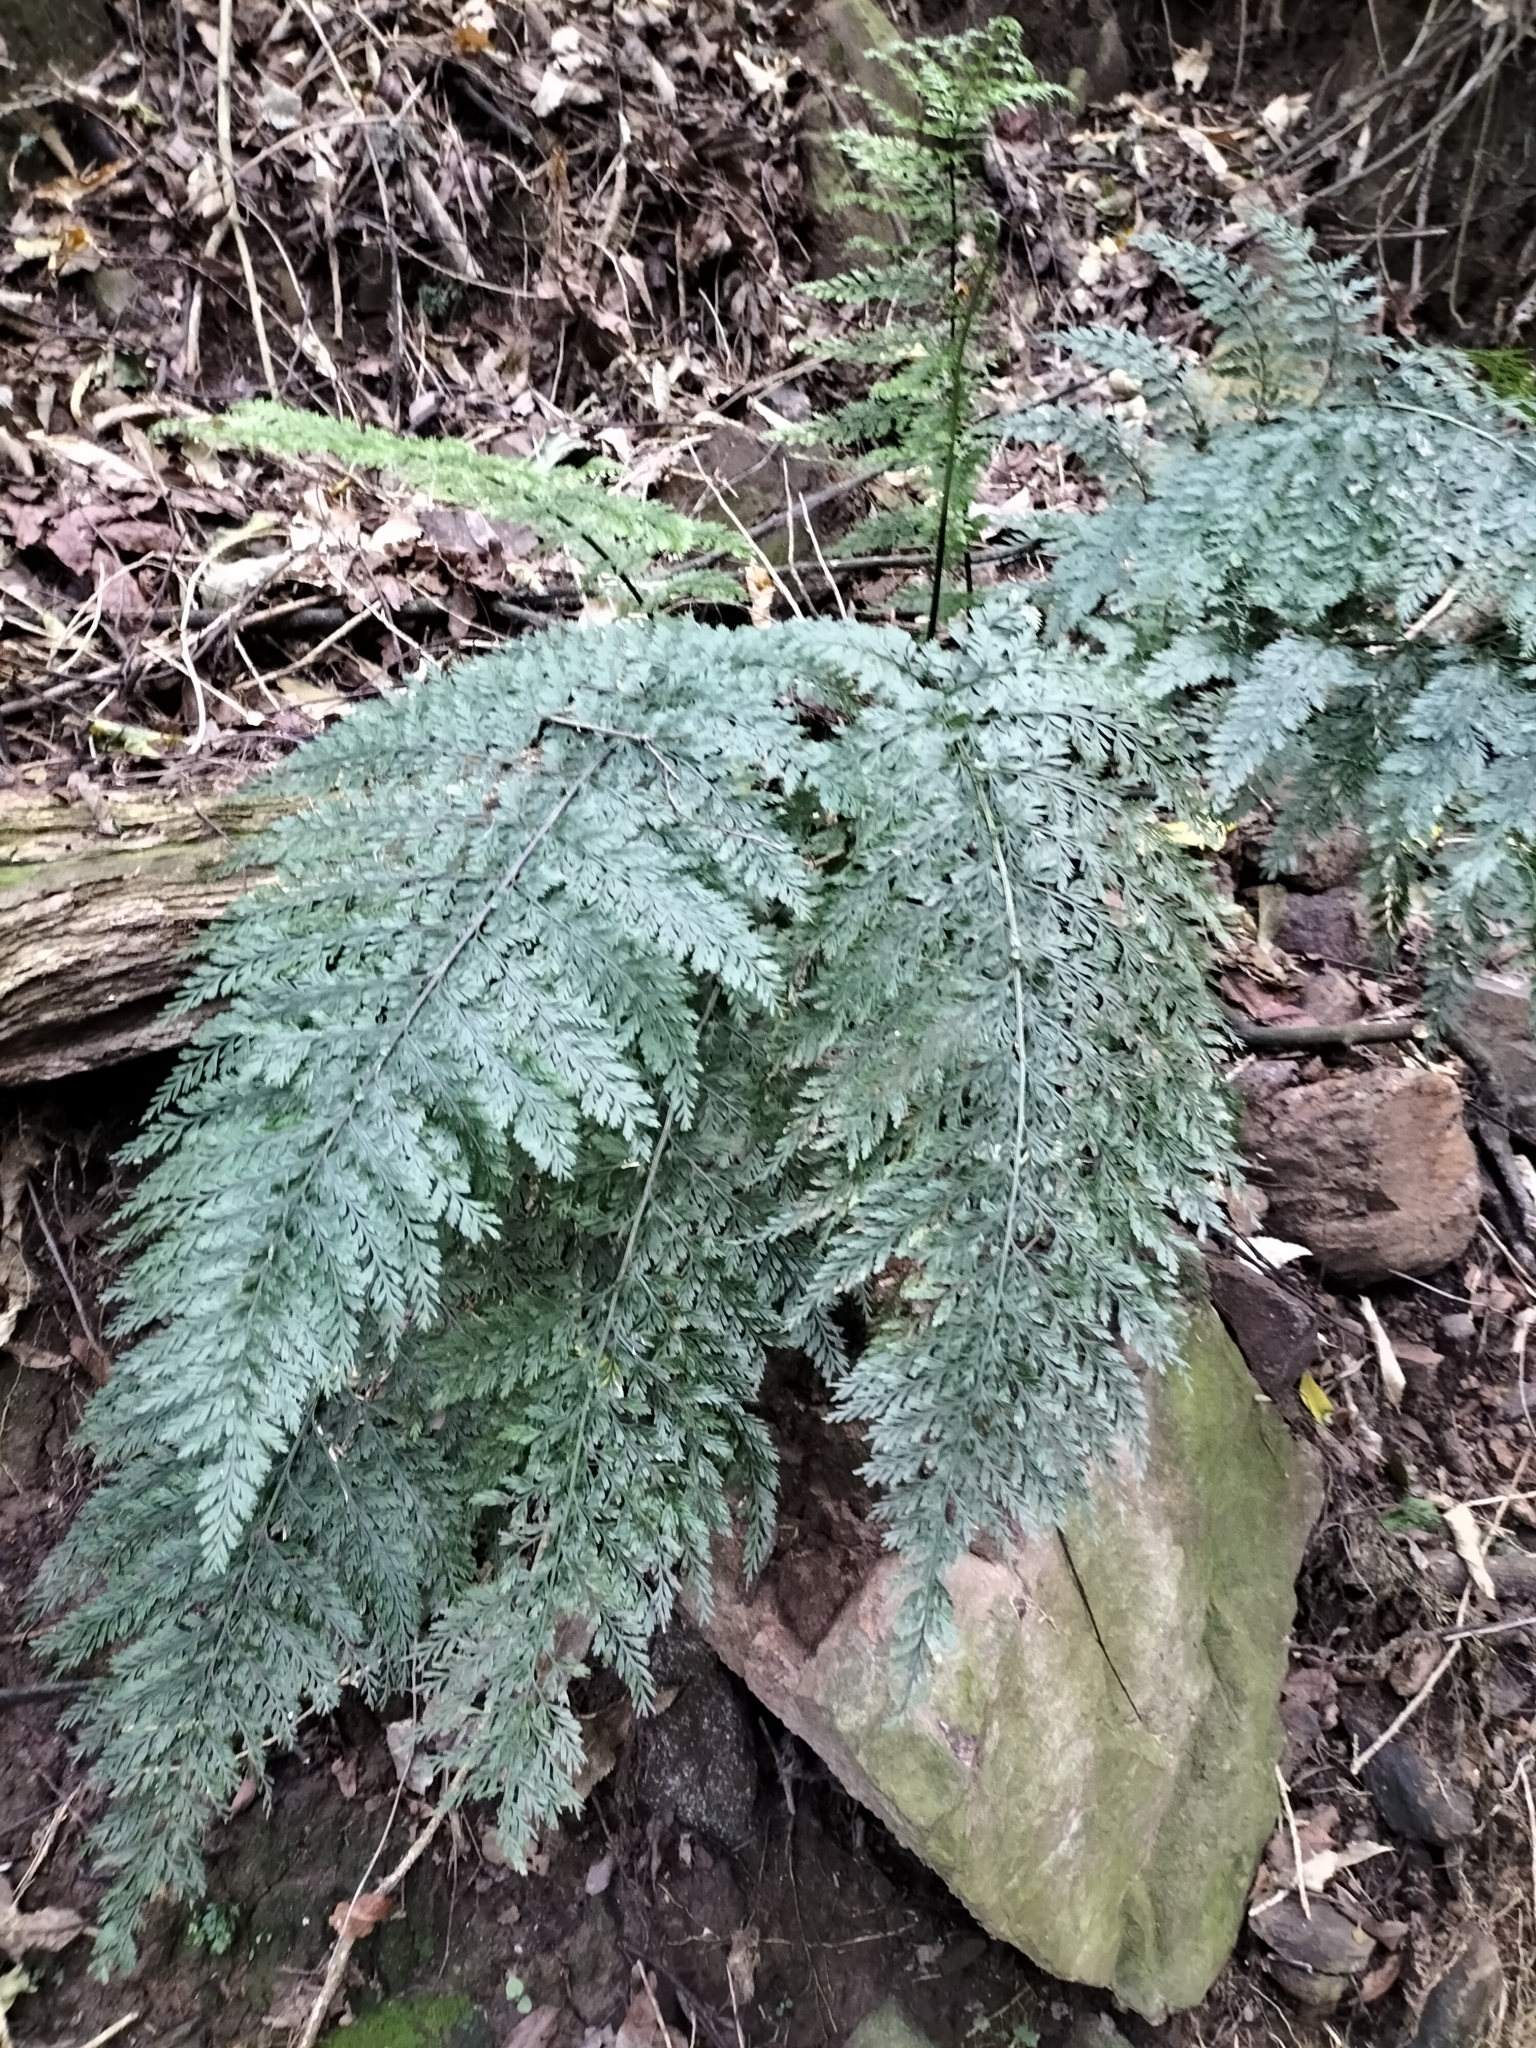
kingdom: Plantae
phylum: Tracheophyta
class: Polypodiopsida
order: Polypodiales
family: Aspleniaceae
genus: Asplenium
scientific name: Asplenium
